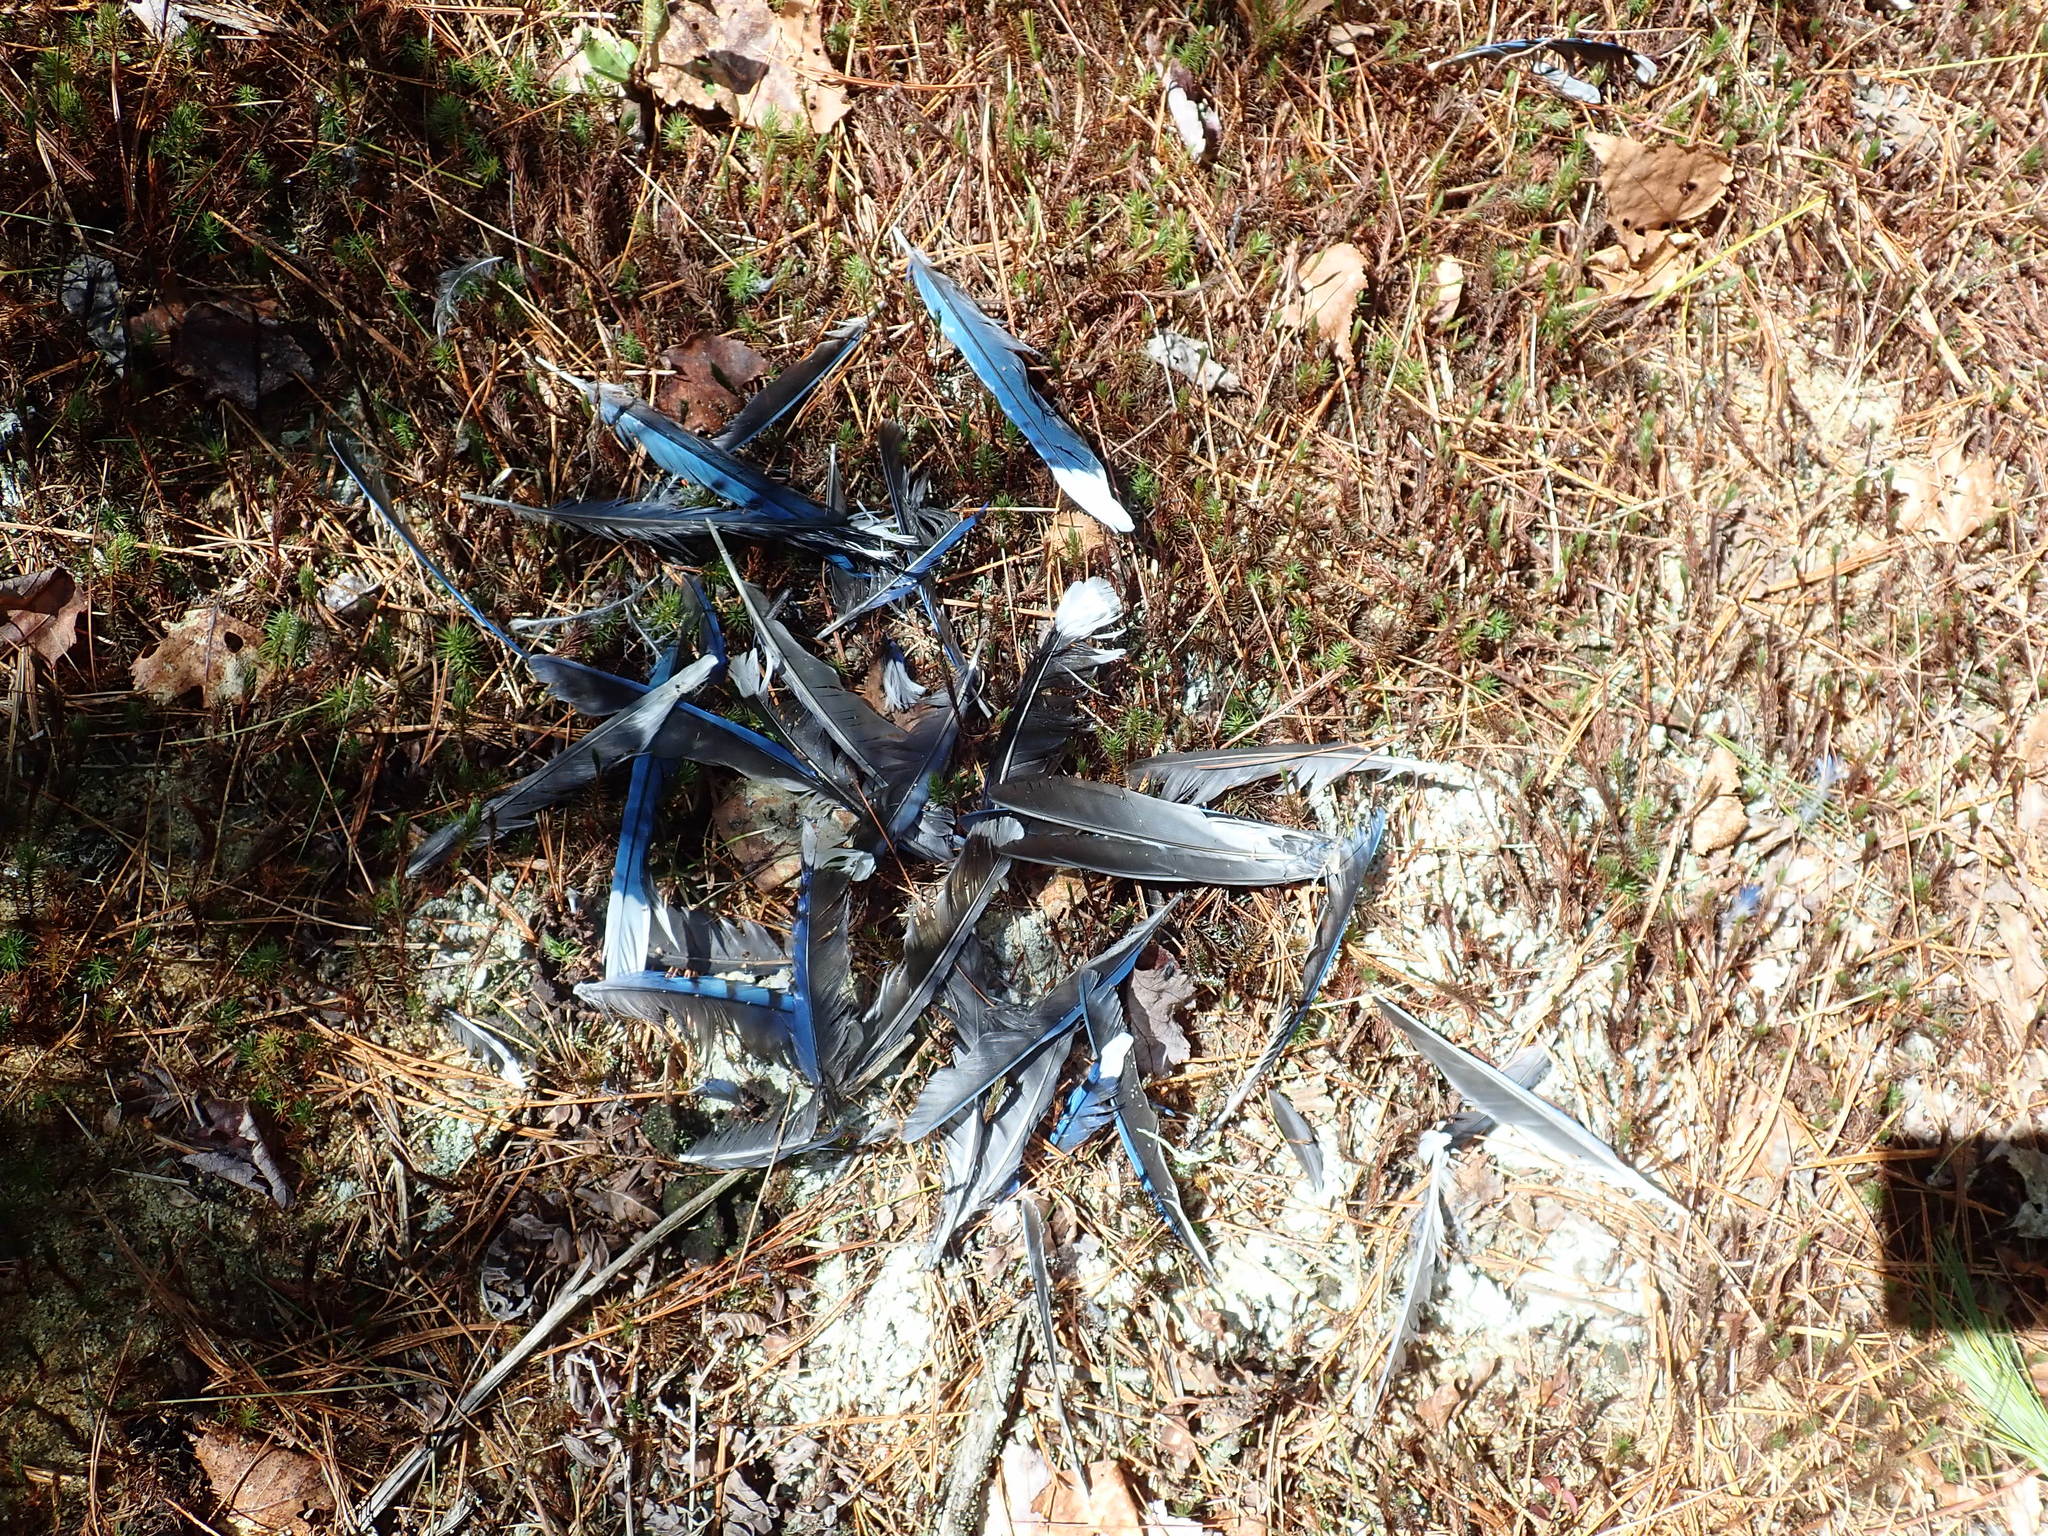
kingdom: Animalia
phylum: Chordata
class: Aves
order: Passeriformes
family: Corvidae
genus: Cyanocitta
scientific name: Cyanocitta cristata
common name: Blue jay
